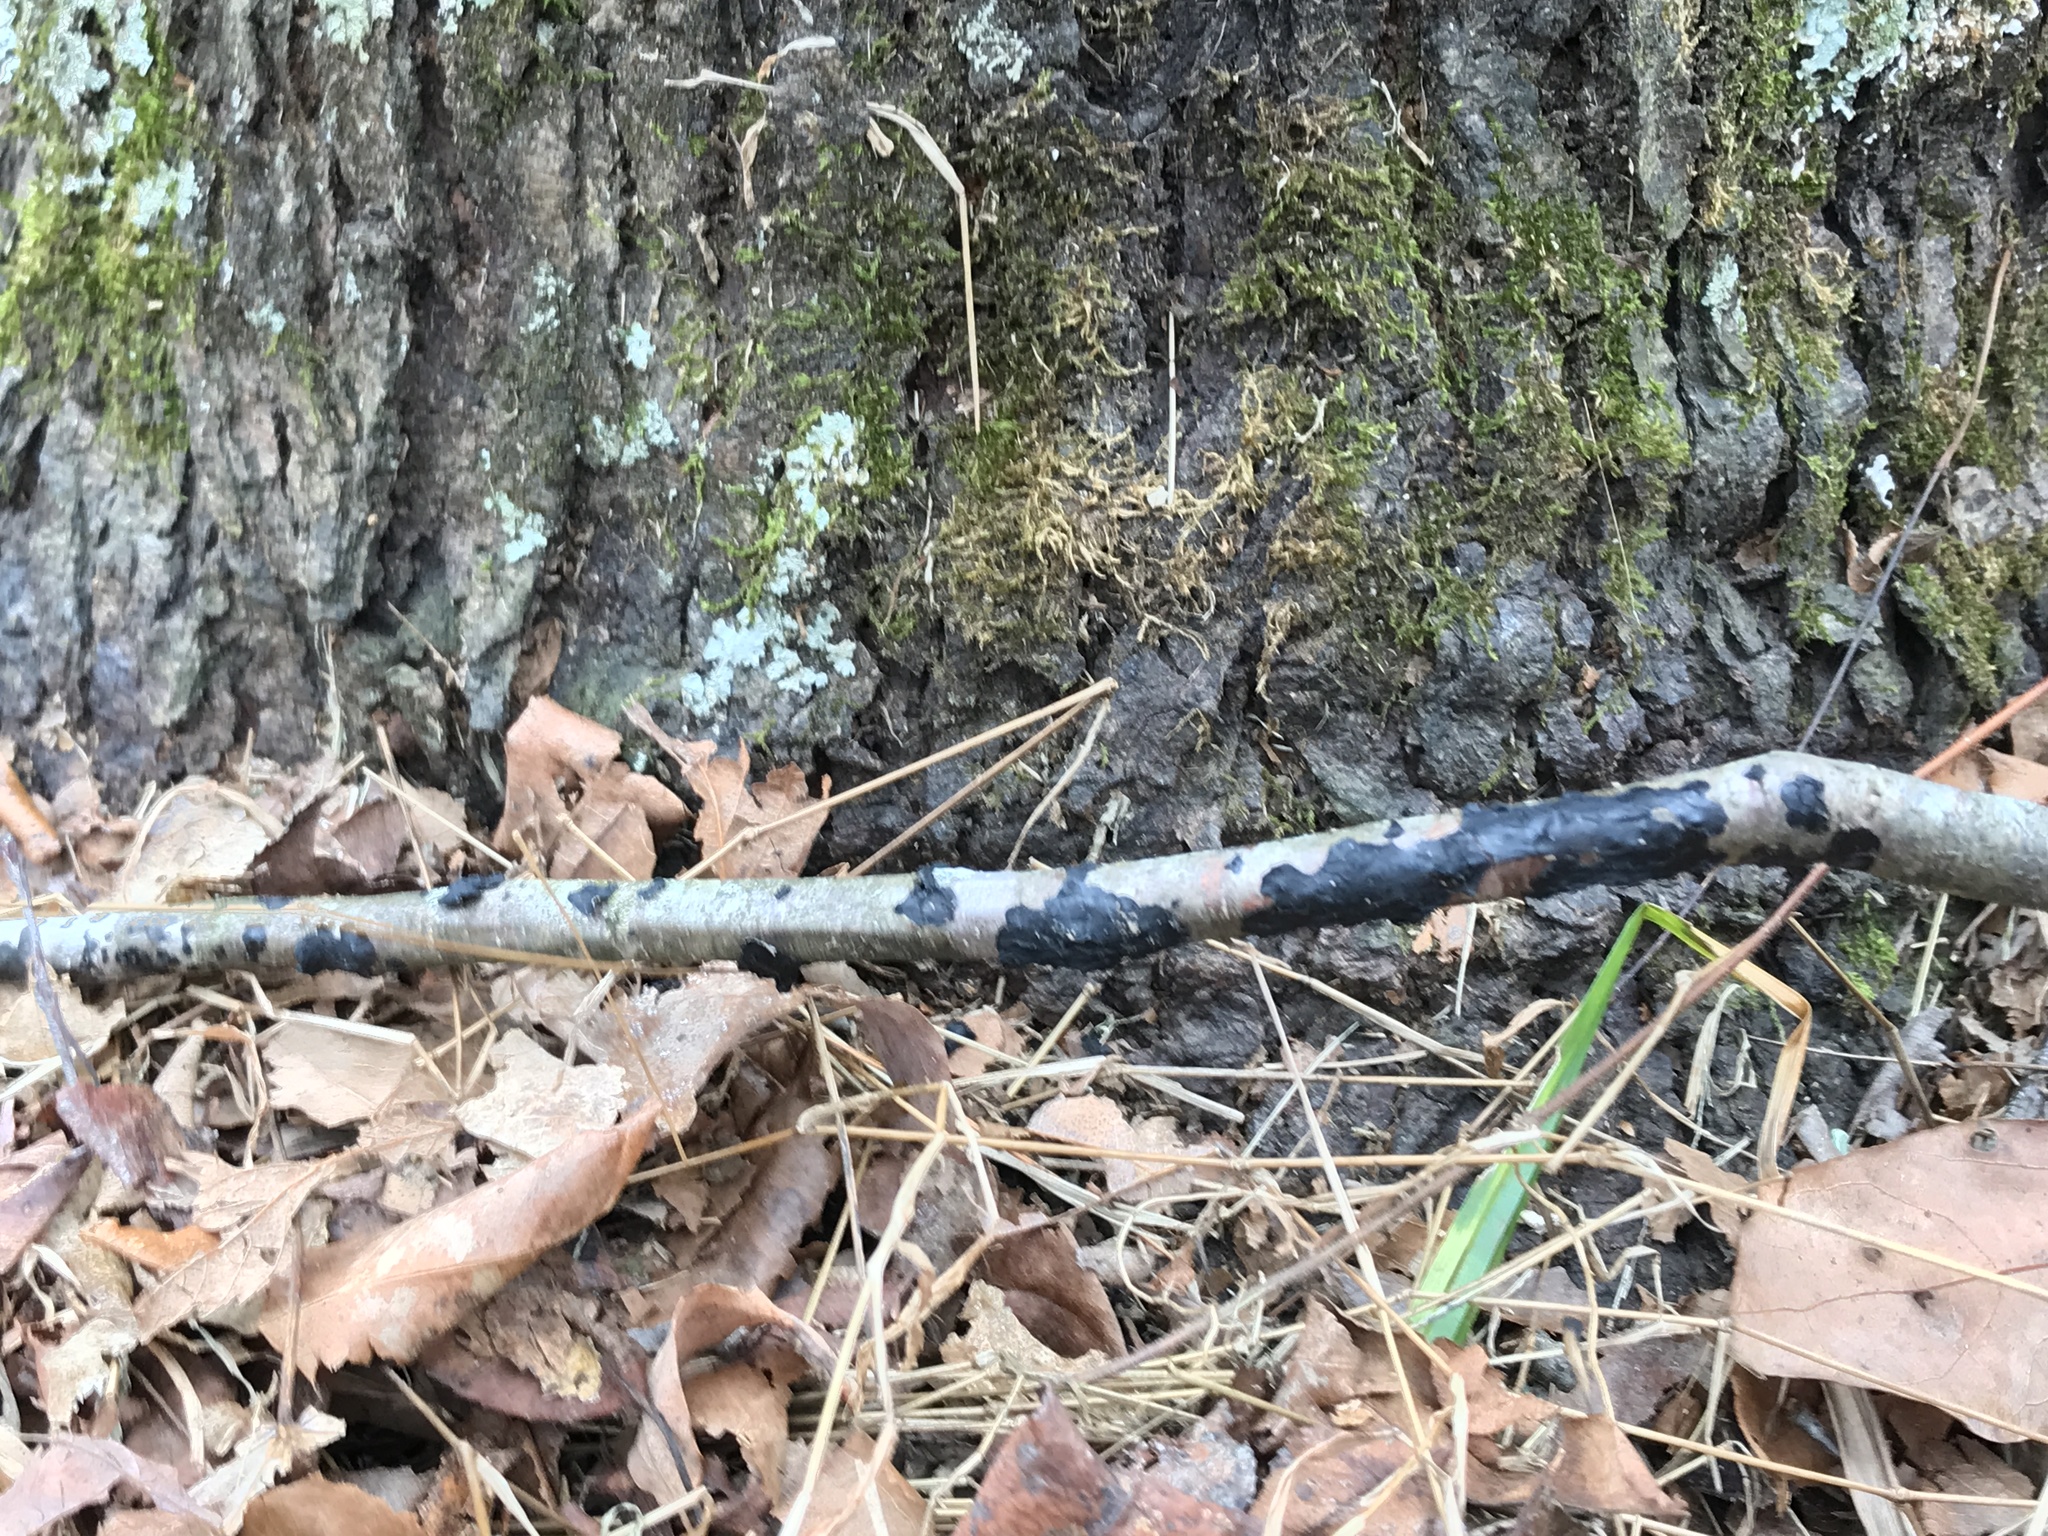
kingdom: Fungi
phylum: Basidiomycota
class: Agaricomycetes
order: Auriculariales
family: Auriculariaceae
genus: Exidia
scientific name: Exidia glandulosa
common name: Witches' butter
